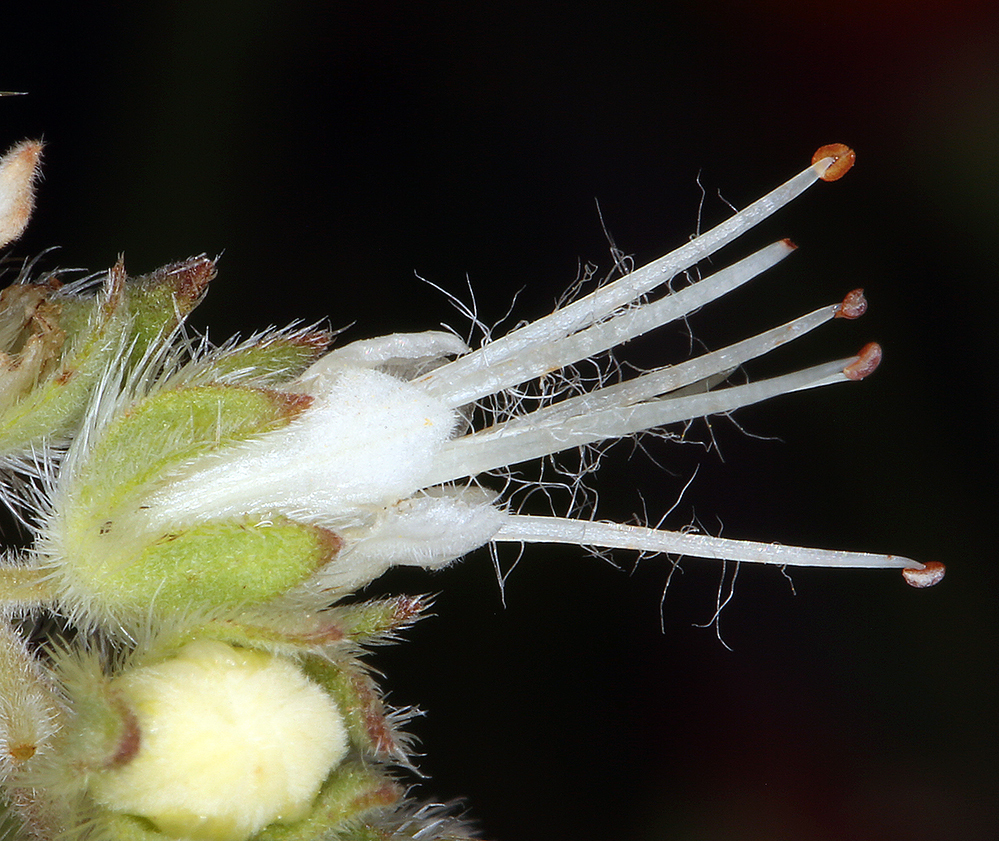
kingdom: Plantae
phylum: Tracheophyta
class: Magnoliopsida
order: Boraginales
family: Hydrophyllaceae
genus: Phacelia
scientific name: Phacelia imbricata
